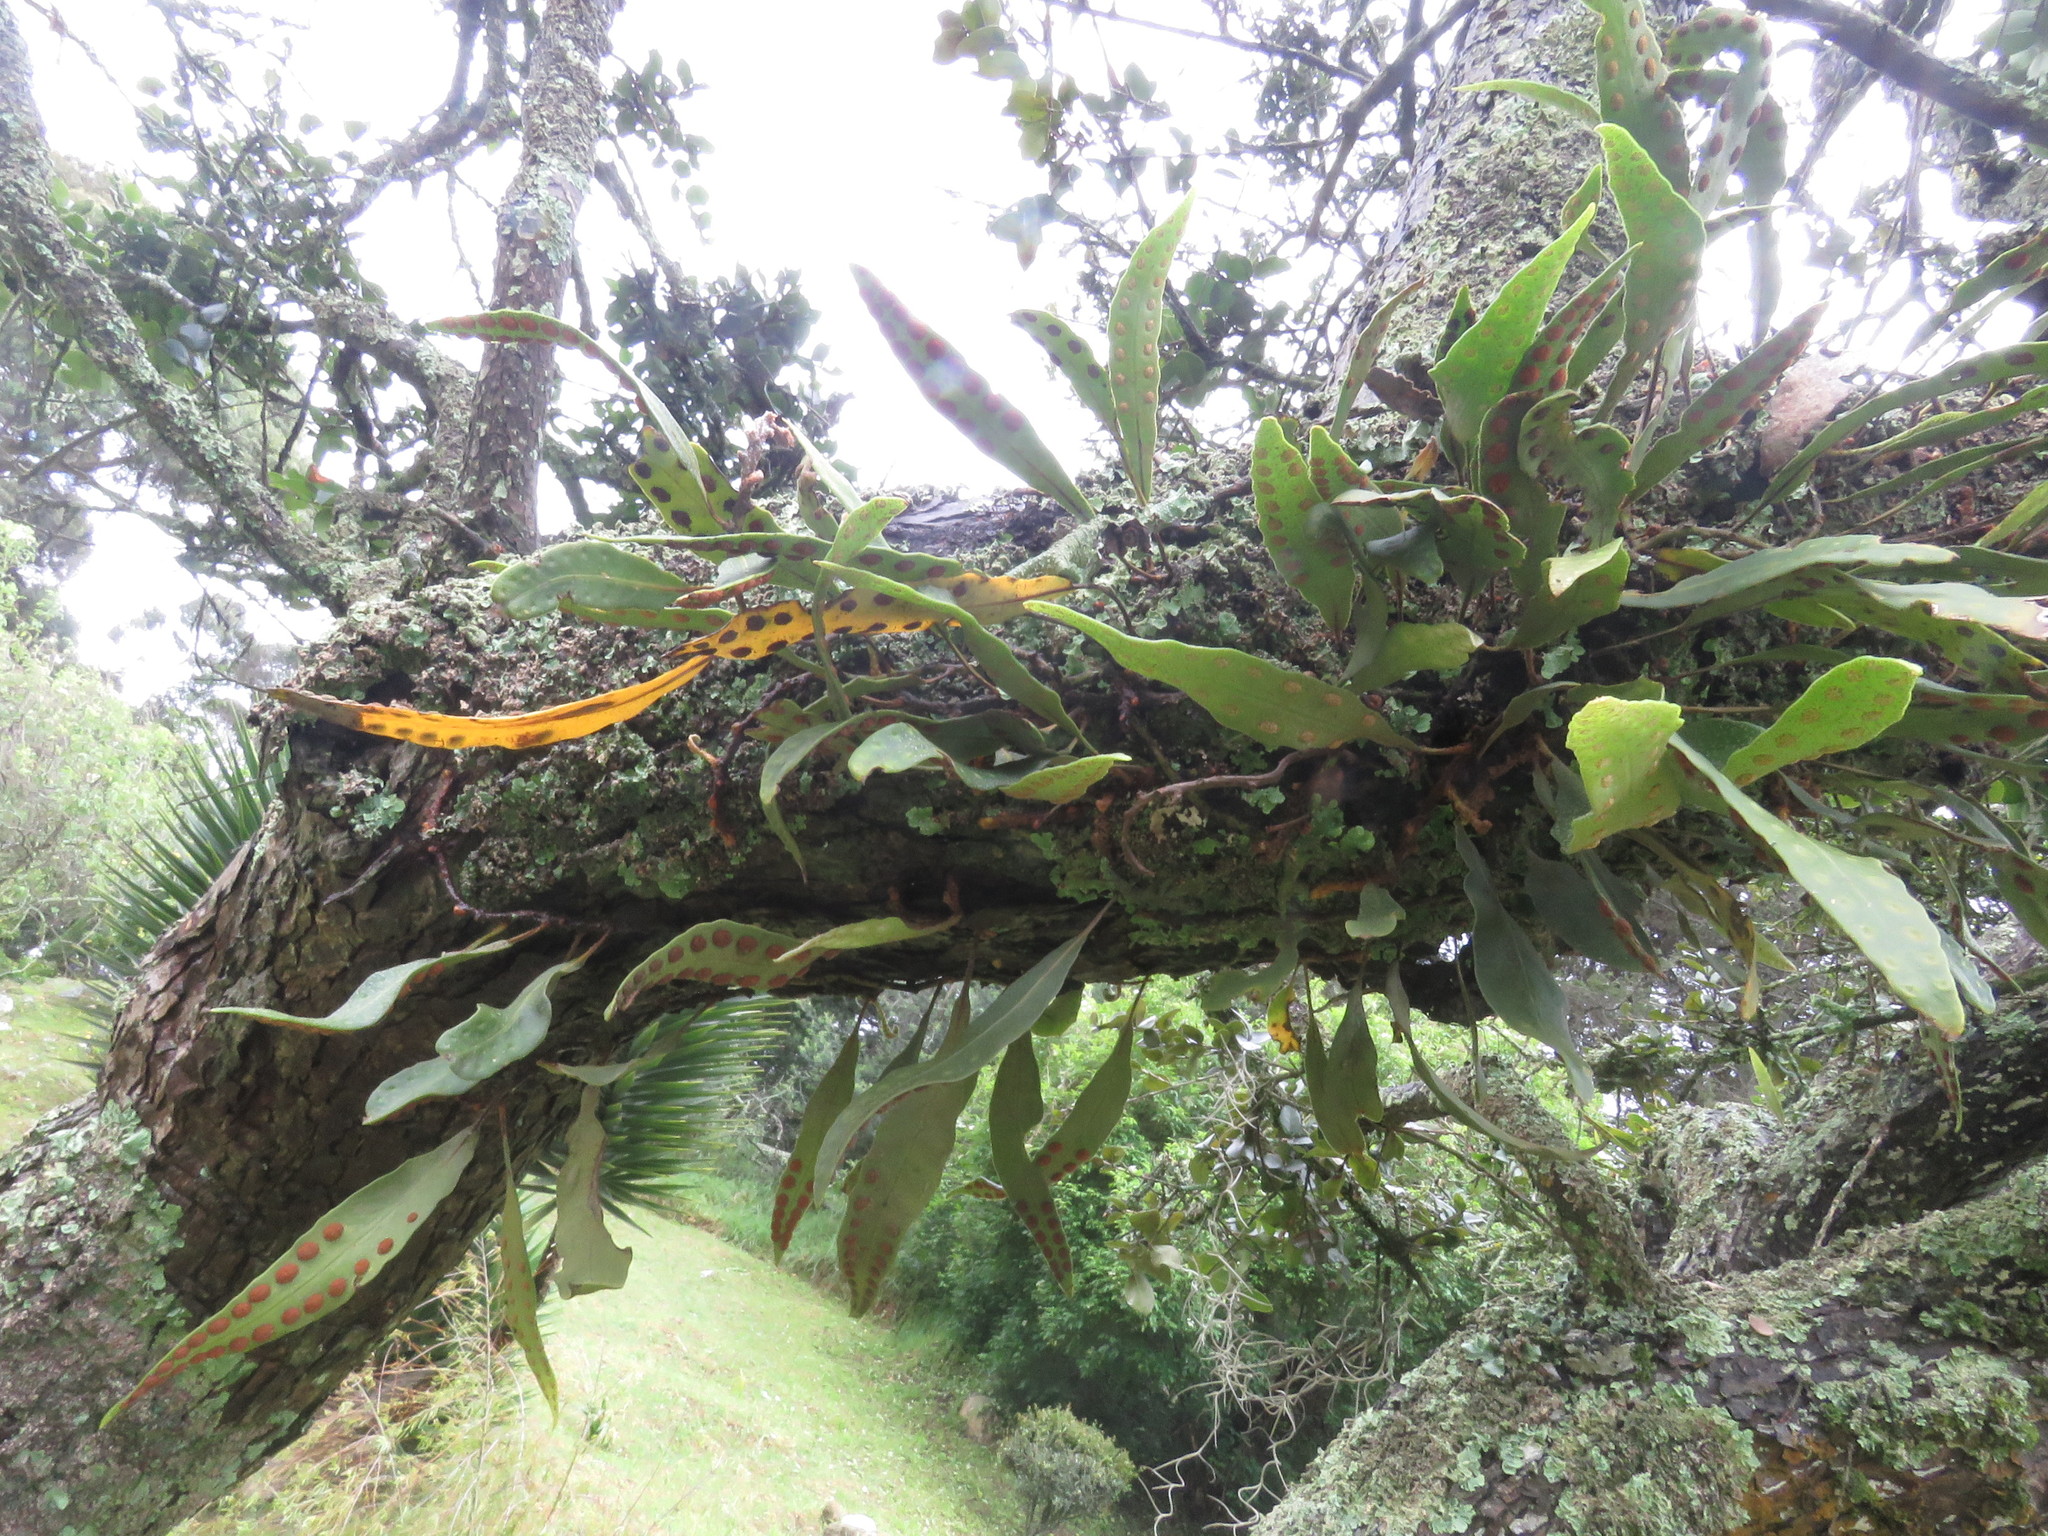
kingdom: Plantae
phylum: Tracheophyta
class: Polypodiopsida
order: Polypodiales
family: Polypodiaceae
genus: Pleopeltis
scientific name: Pleopeltis macrocarpa
